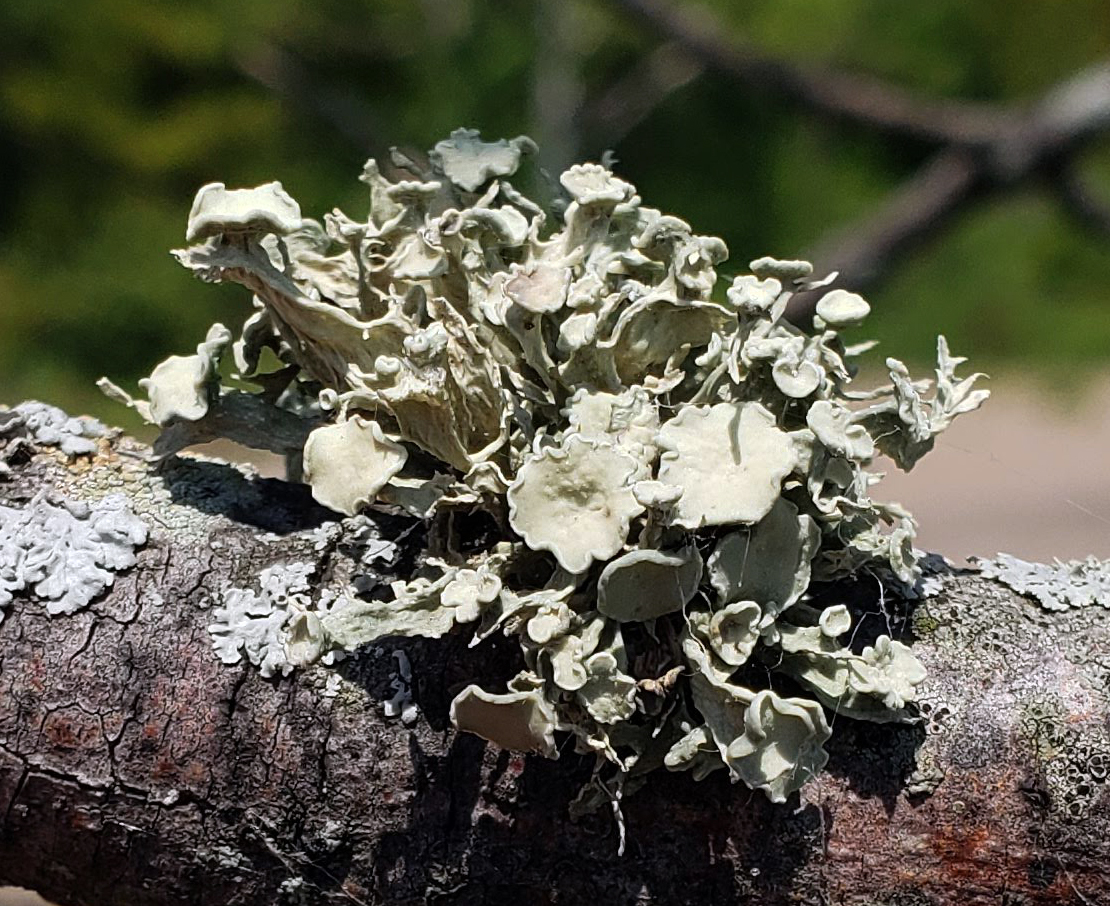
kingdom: Fungi
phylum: Ascomycota
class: Lecanoromycetes
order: Lecanorales
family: Ramalinaceae
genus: Ramalina
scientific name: Ramalina americana
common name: Sinewed bush lichen
